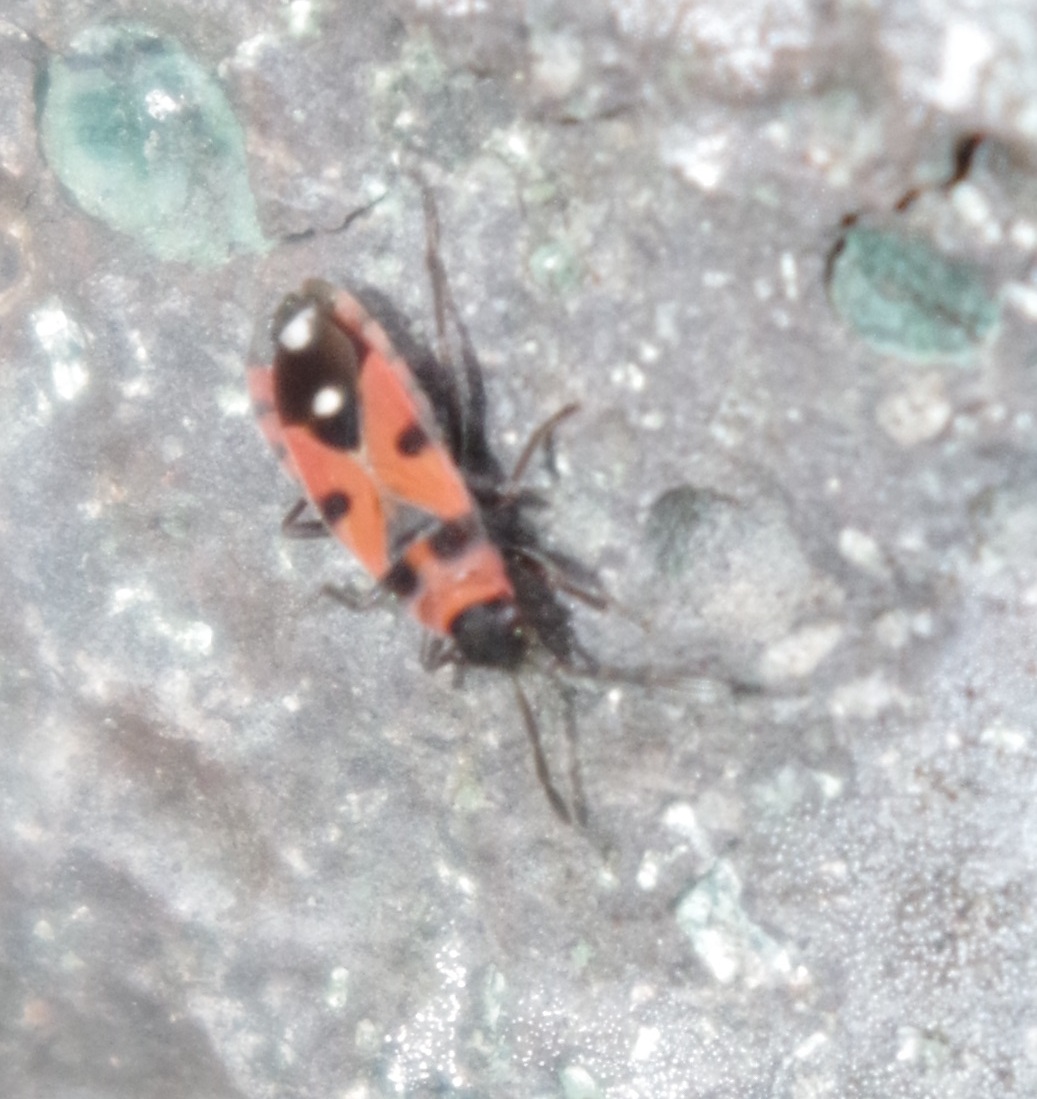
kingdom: Animalia
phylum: Arthropoda
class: Insecta
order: Hemiptera
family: Lygaeidae
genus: Horvathiolus
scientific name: Horvathiolus superbus
